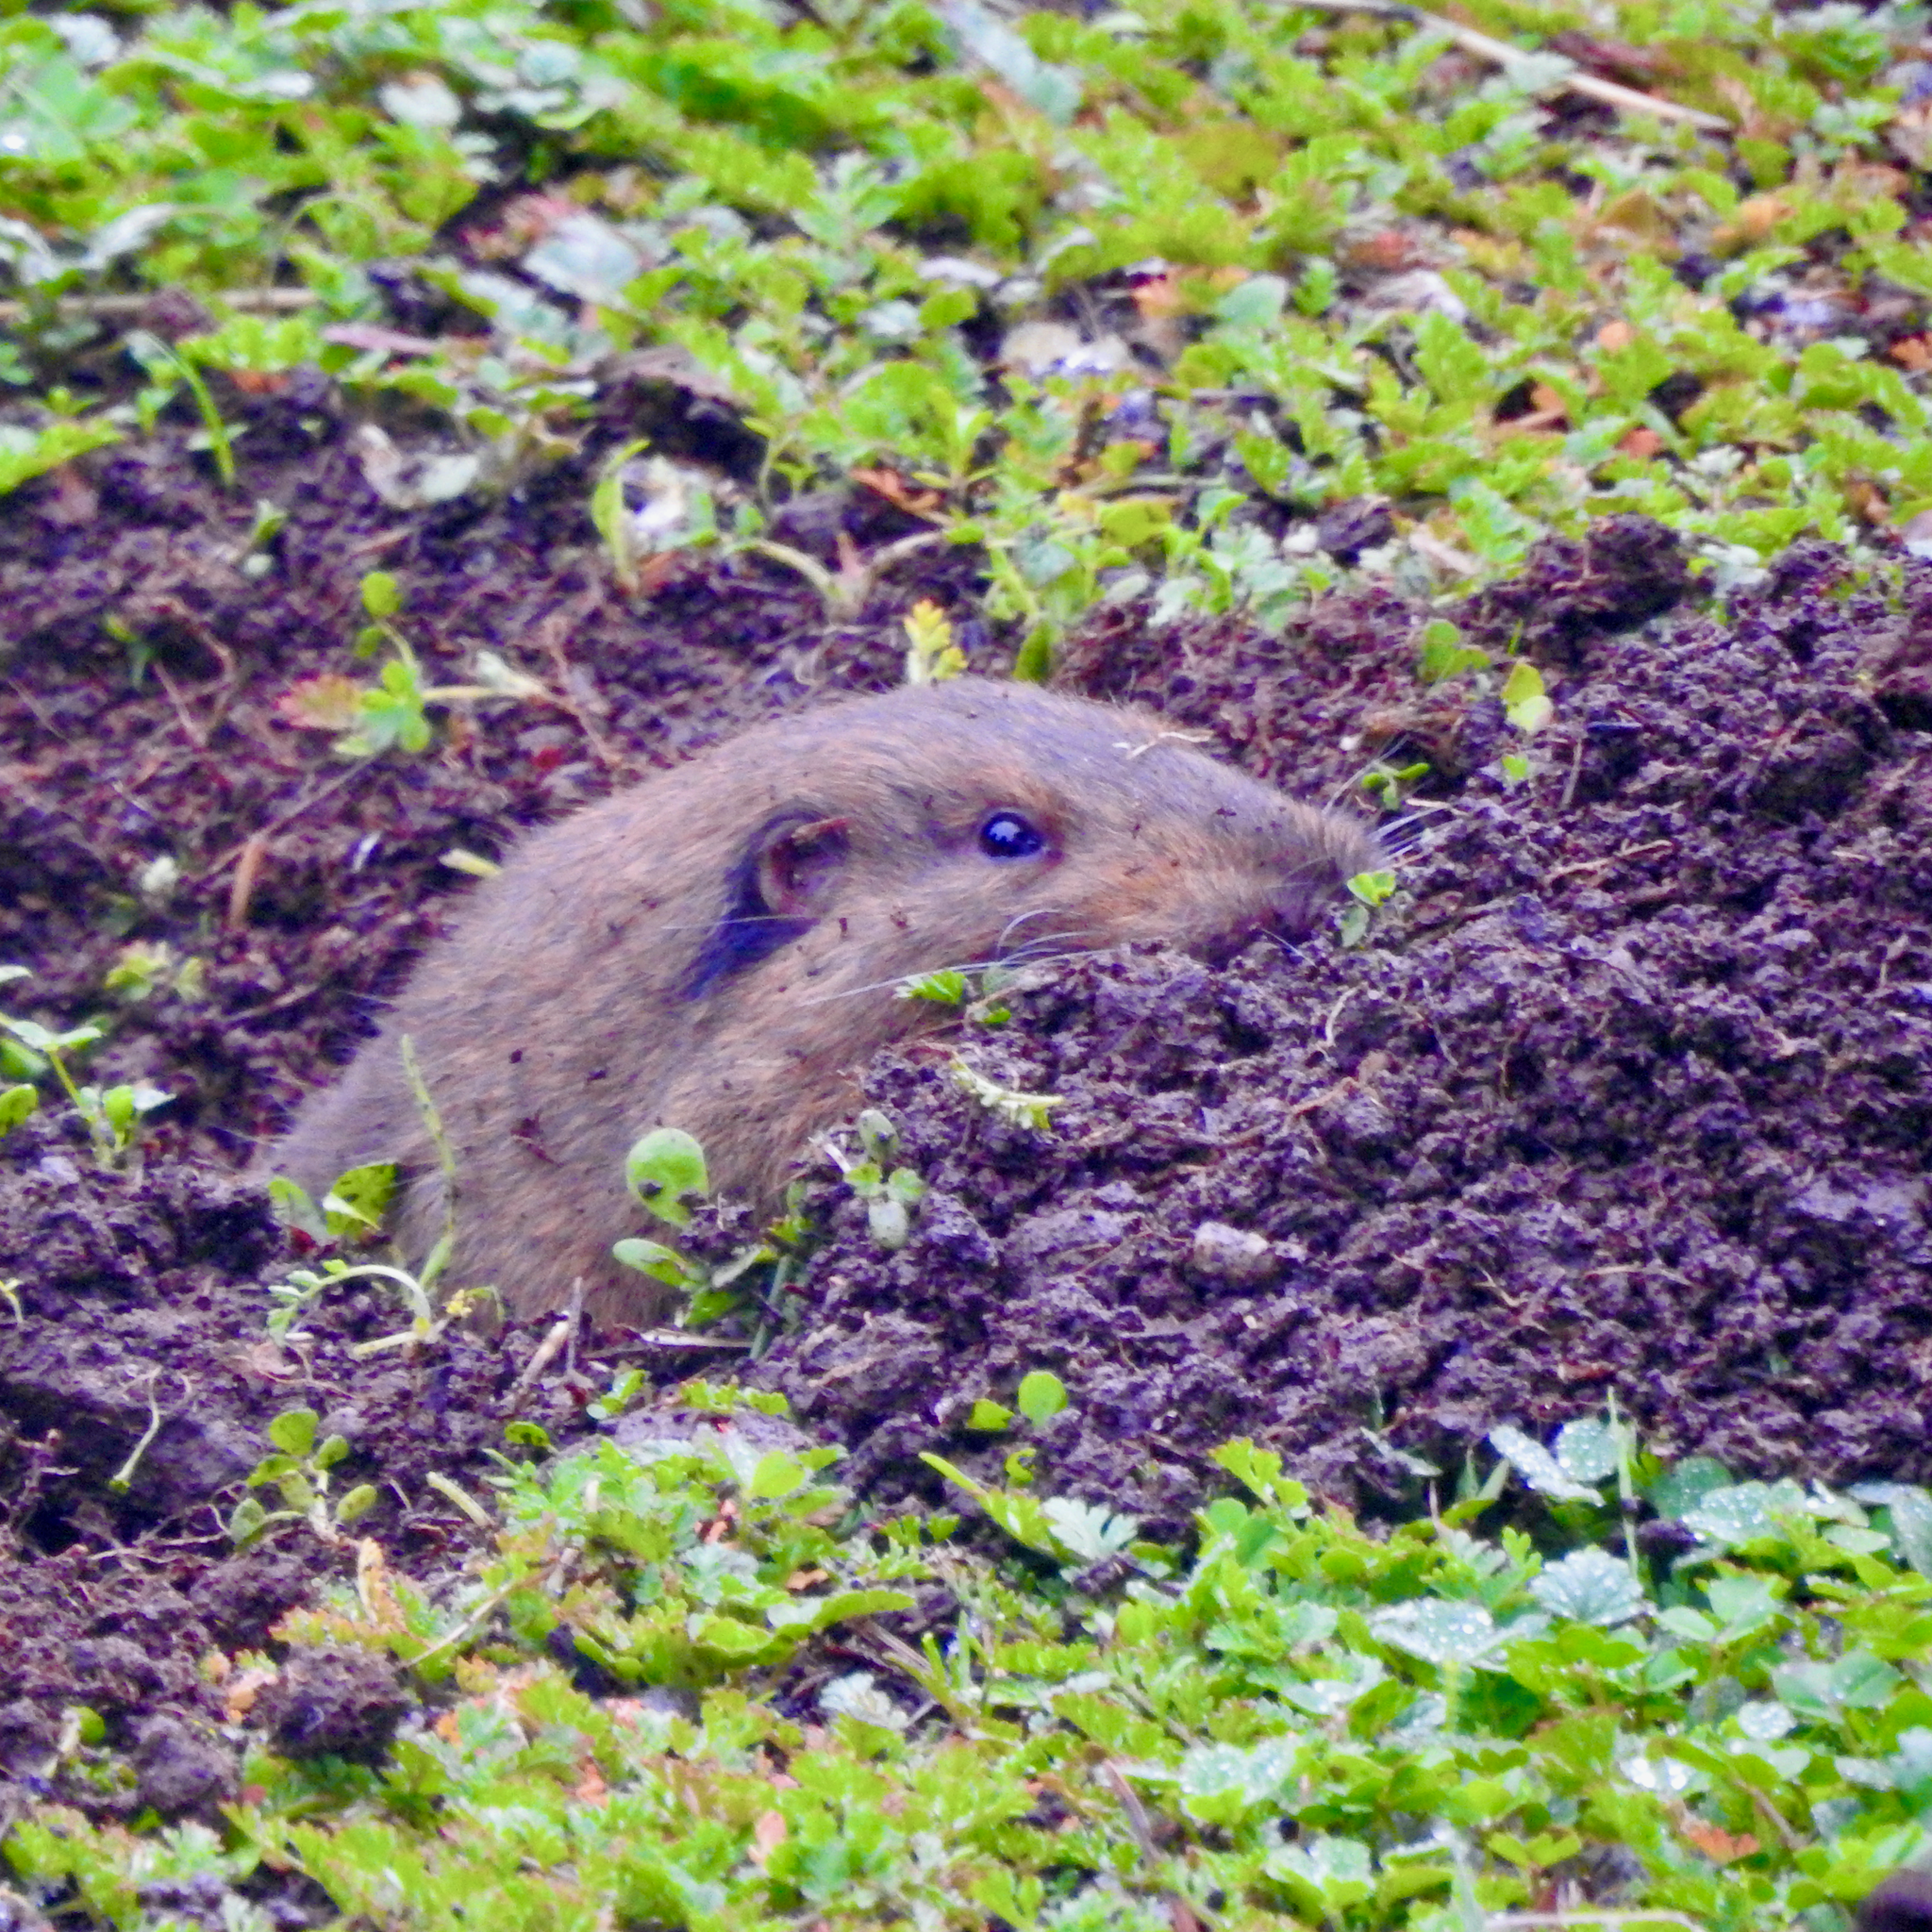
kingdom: Animalia
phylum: Chordata
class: Mammalia
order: Rodentia
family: Geomyidae
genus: Thomomys
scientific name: Thomomys bottae
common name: Botta's pocket gopher
